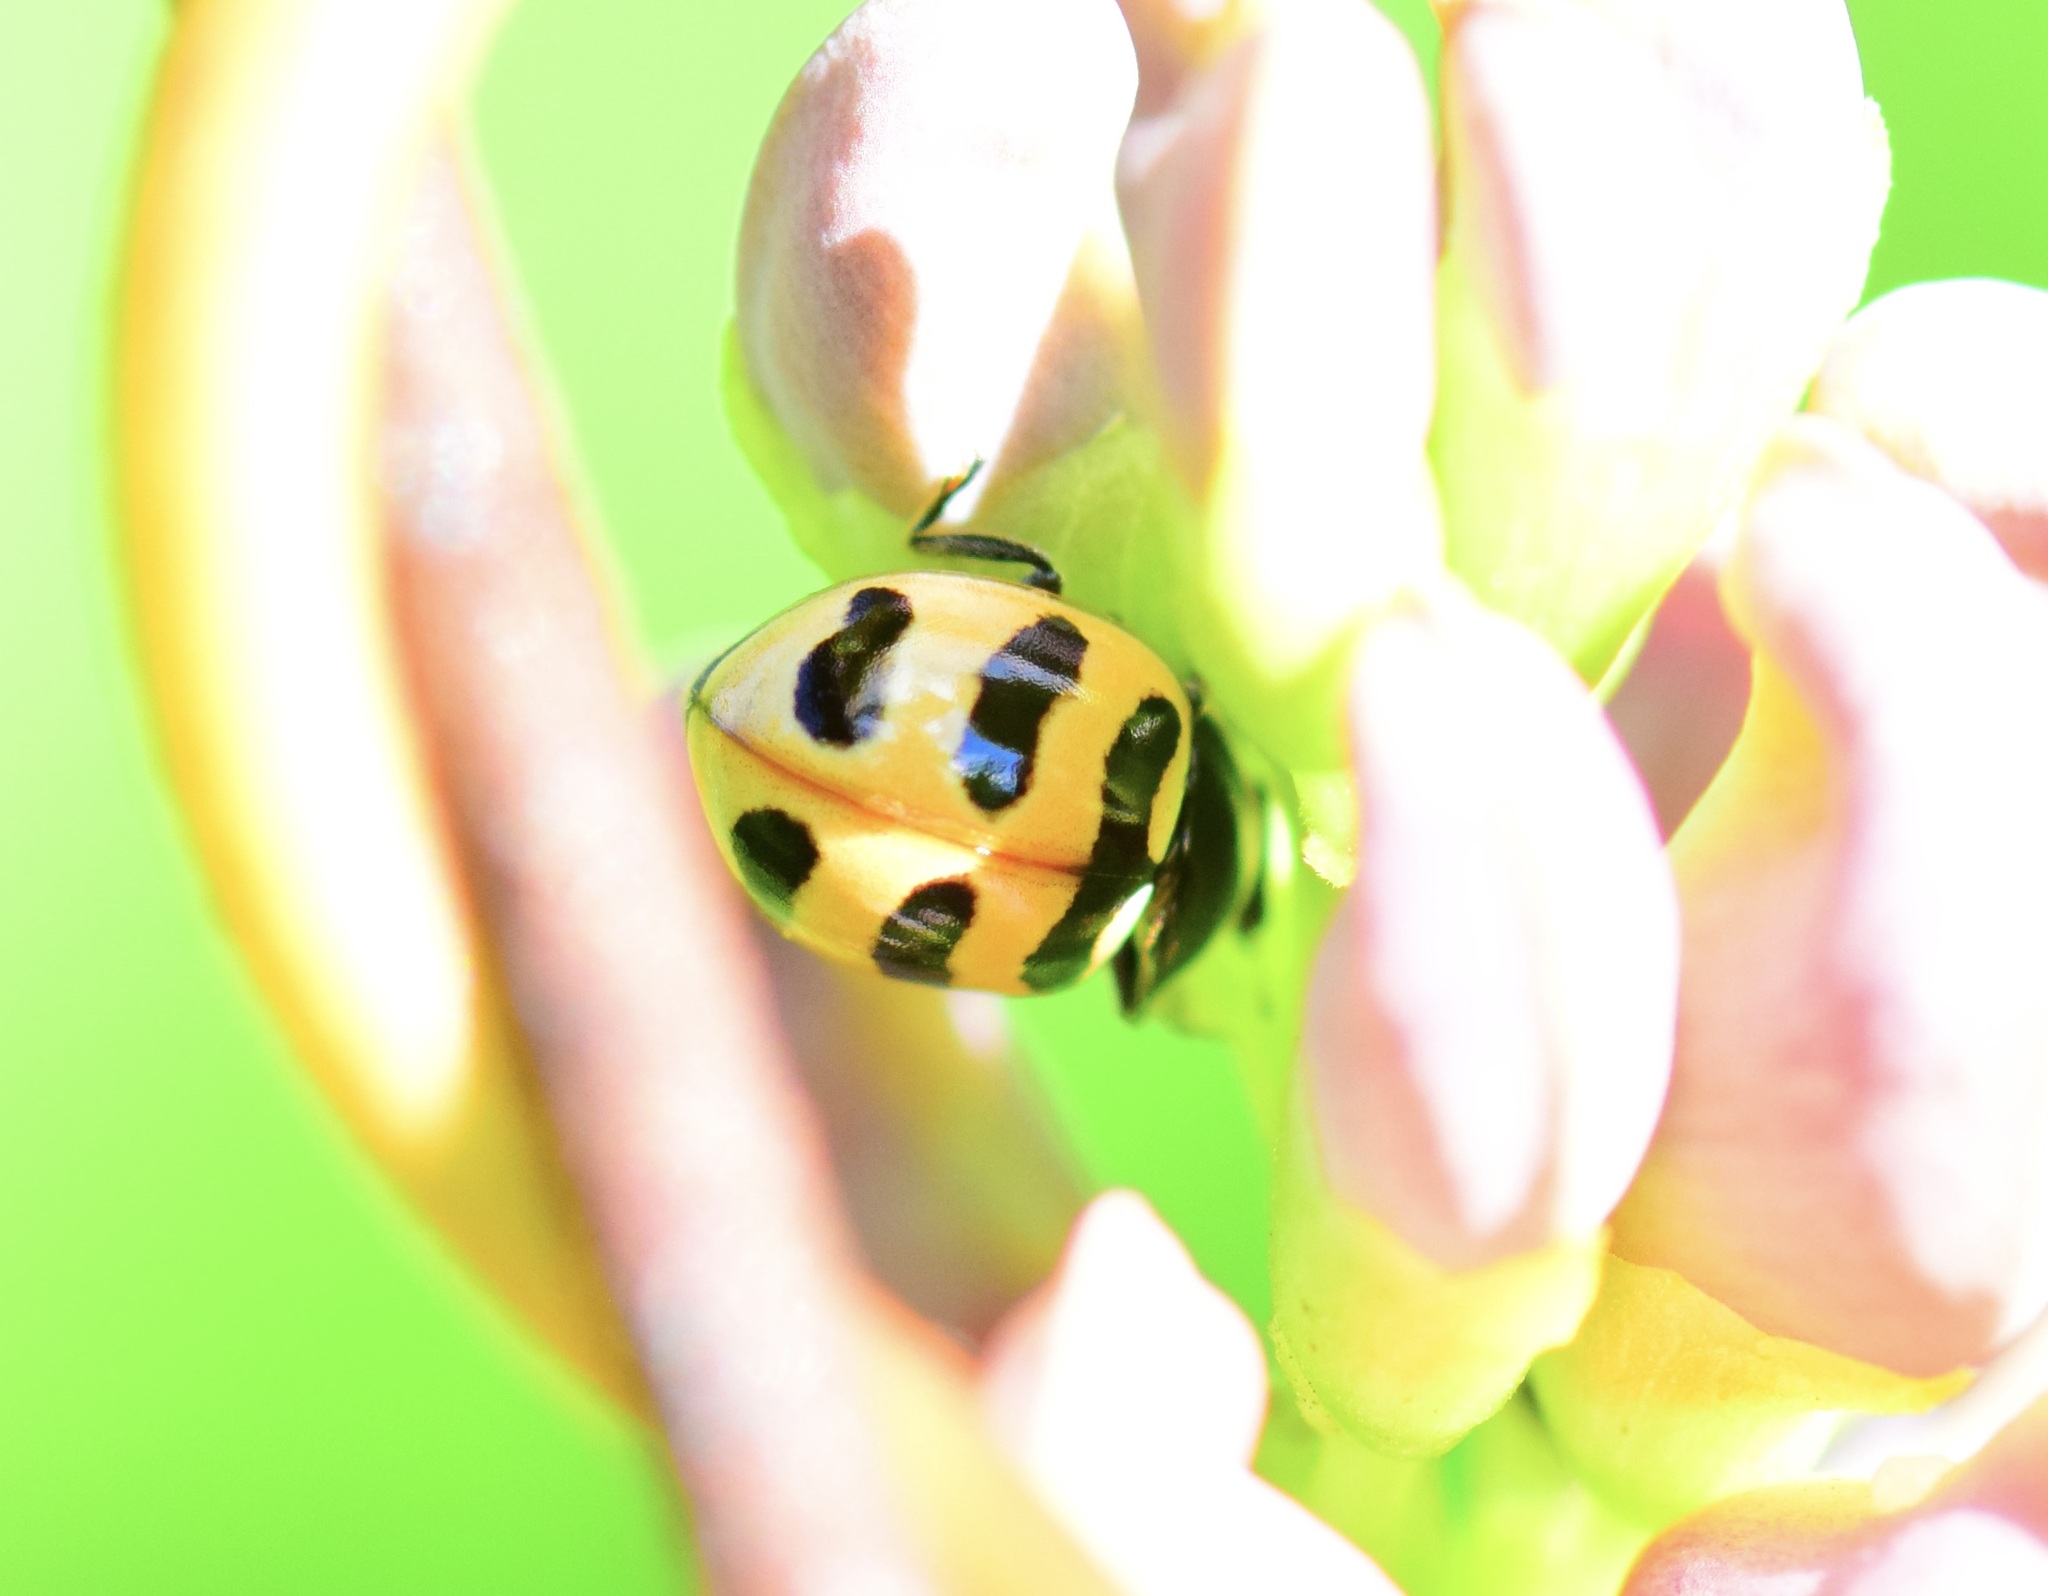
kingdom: Animalia
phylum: Arthropoda
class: Insecta
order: Coleoptera
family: Coccinellidae
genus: Coccinella
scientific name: Coccinella trifasciata
